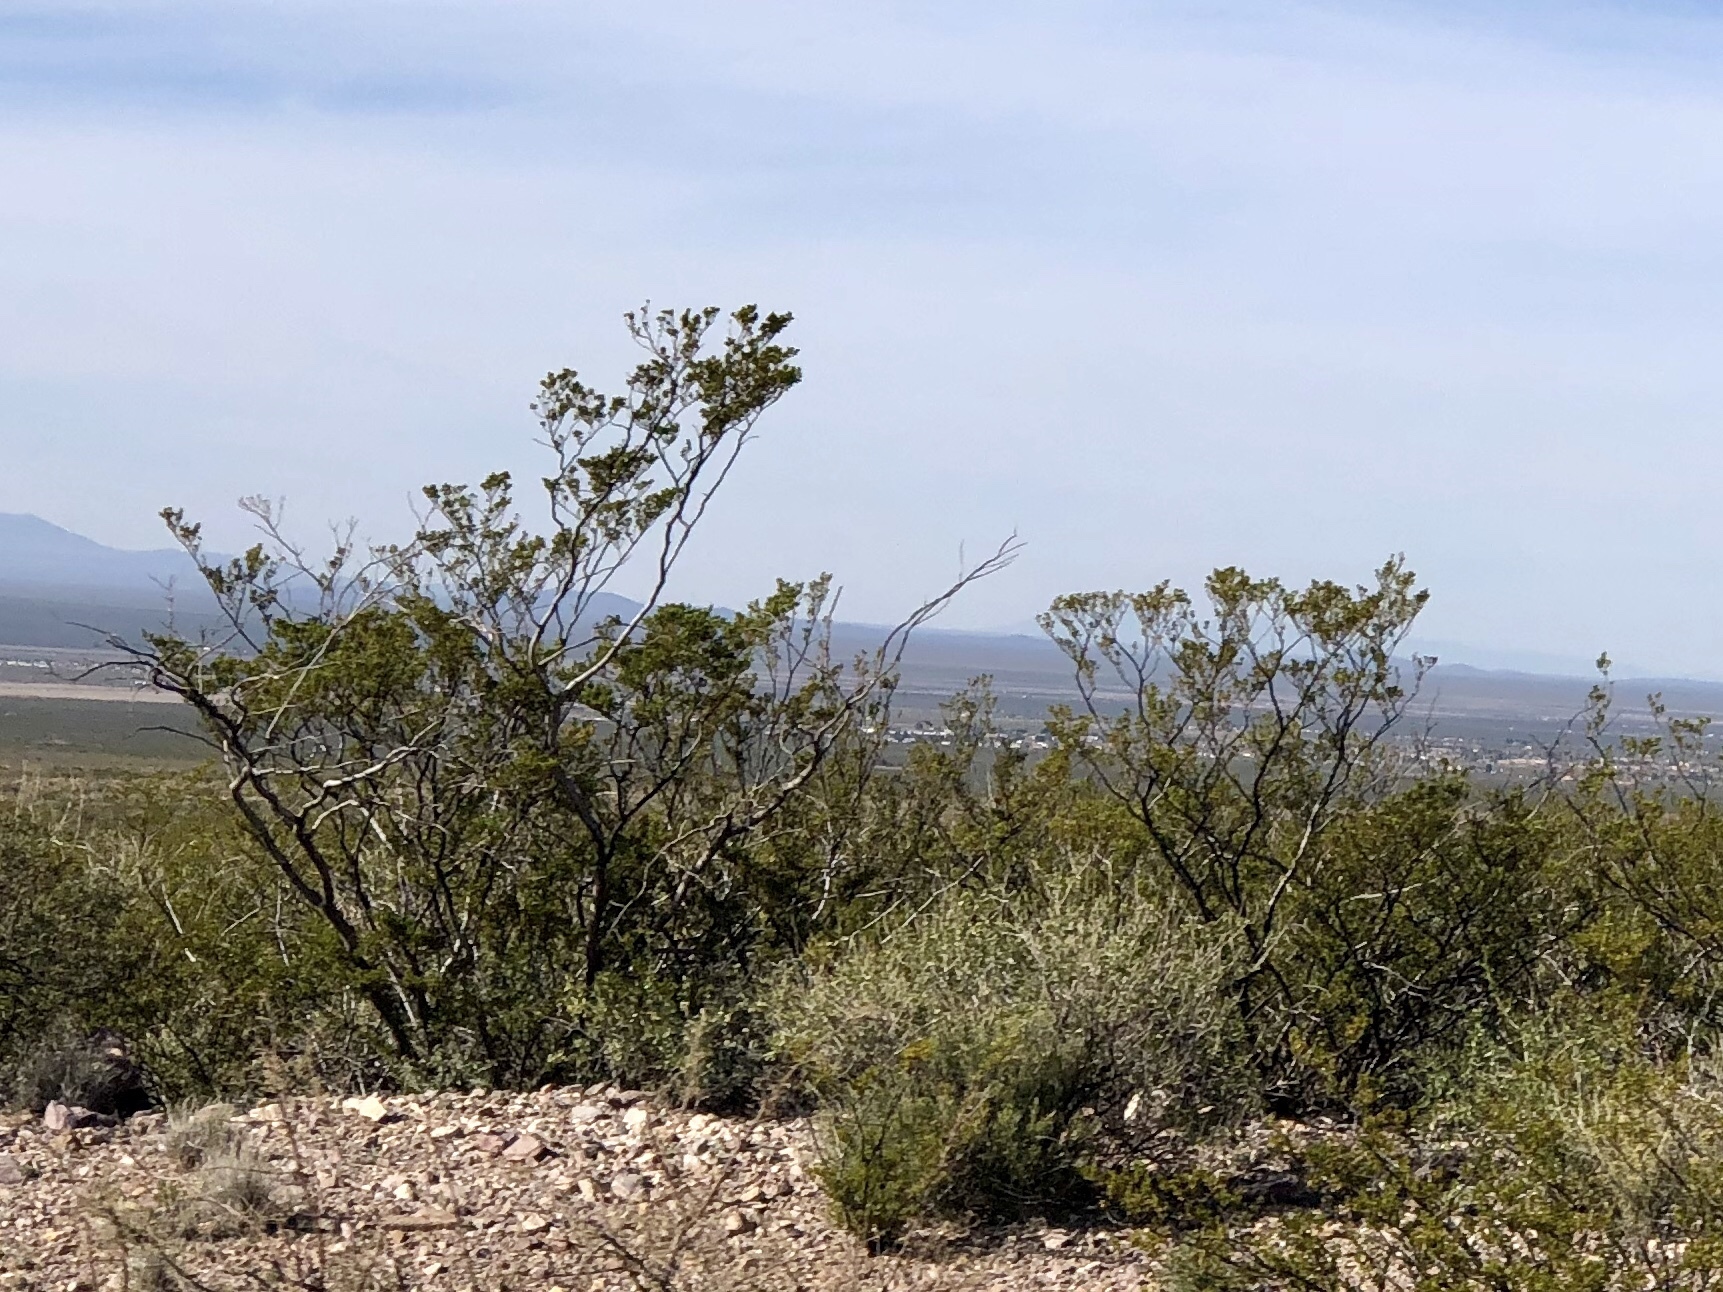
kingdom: Plantae
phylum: Tracheophyta
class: Magnoliopsida
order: Zygophyllales
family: Zygophyllaceae
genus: Larrea
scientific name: Larrea tridentata
